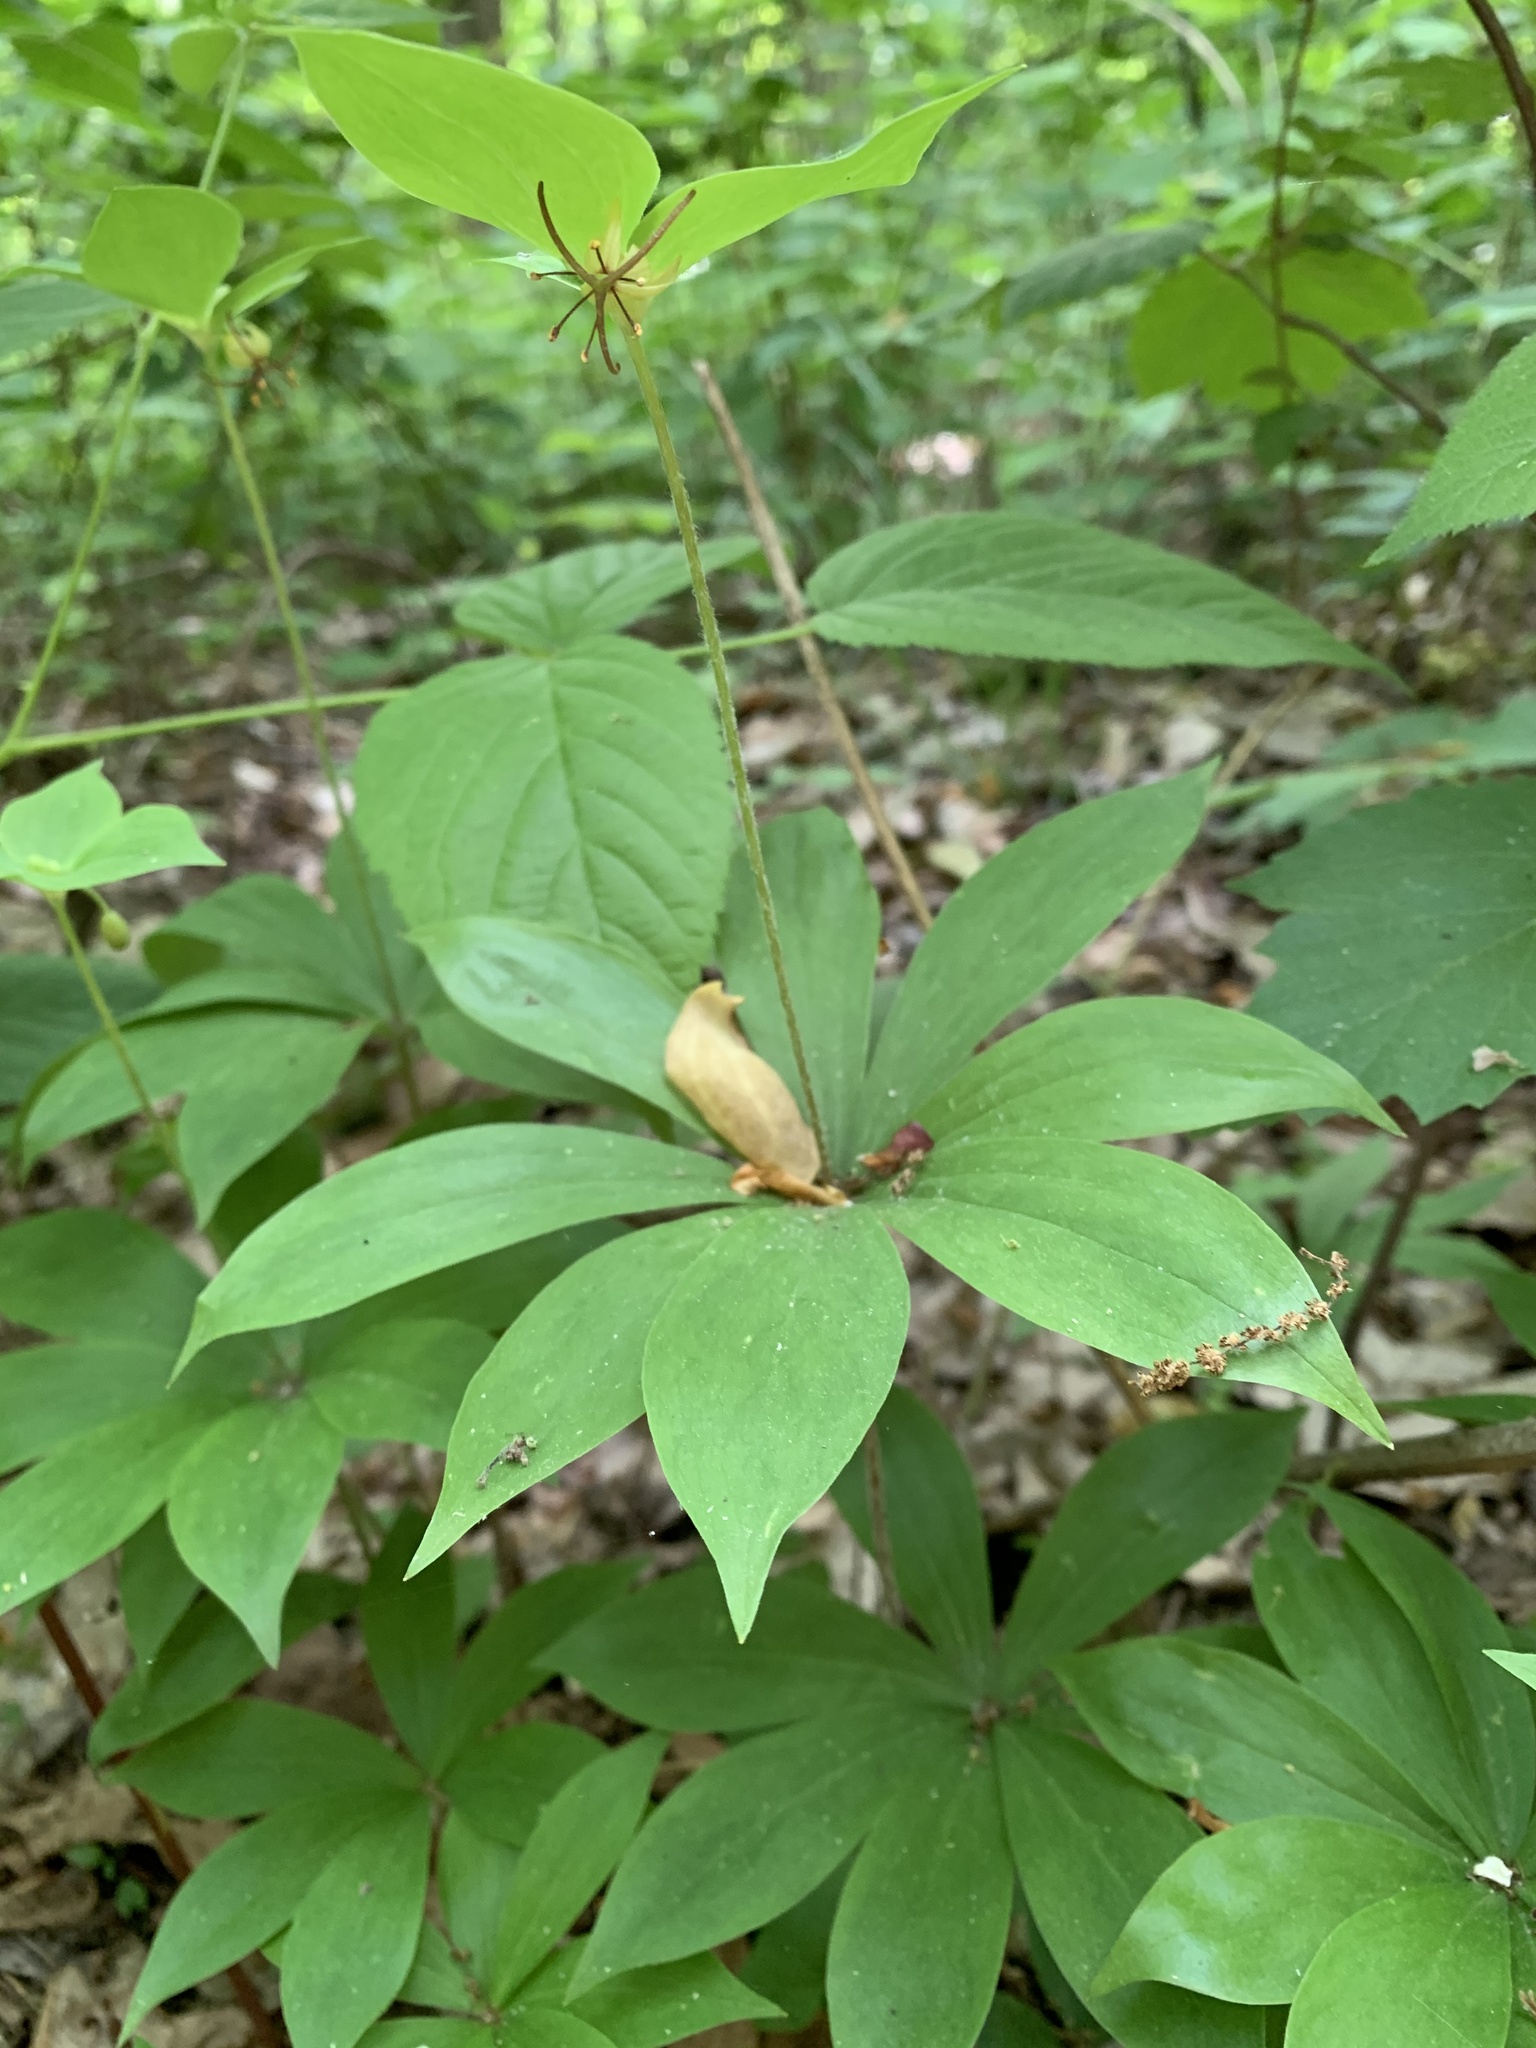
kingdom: Plantae
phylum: Tracheophyta
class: Liliopsida
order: Liliales
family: Liliaceae
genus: Medeola
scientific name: Medeola virginiana
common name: Indian cucumber-root
